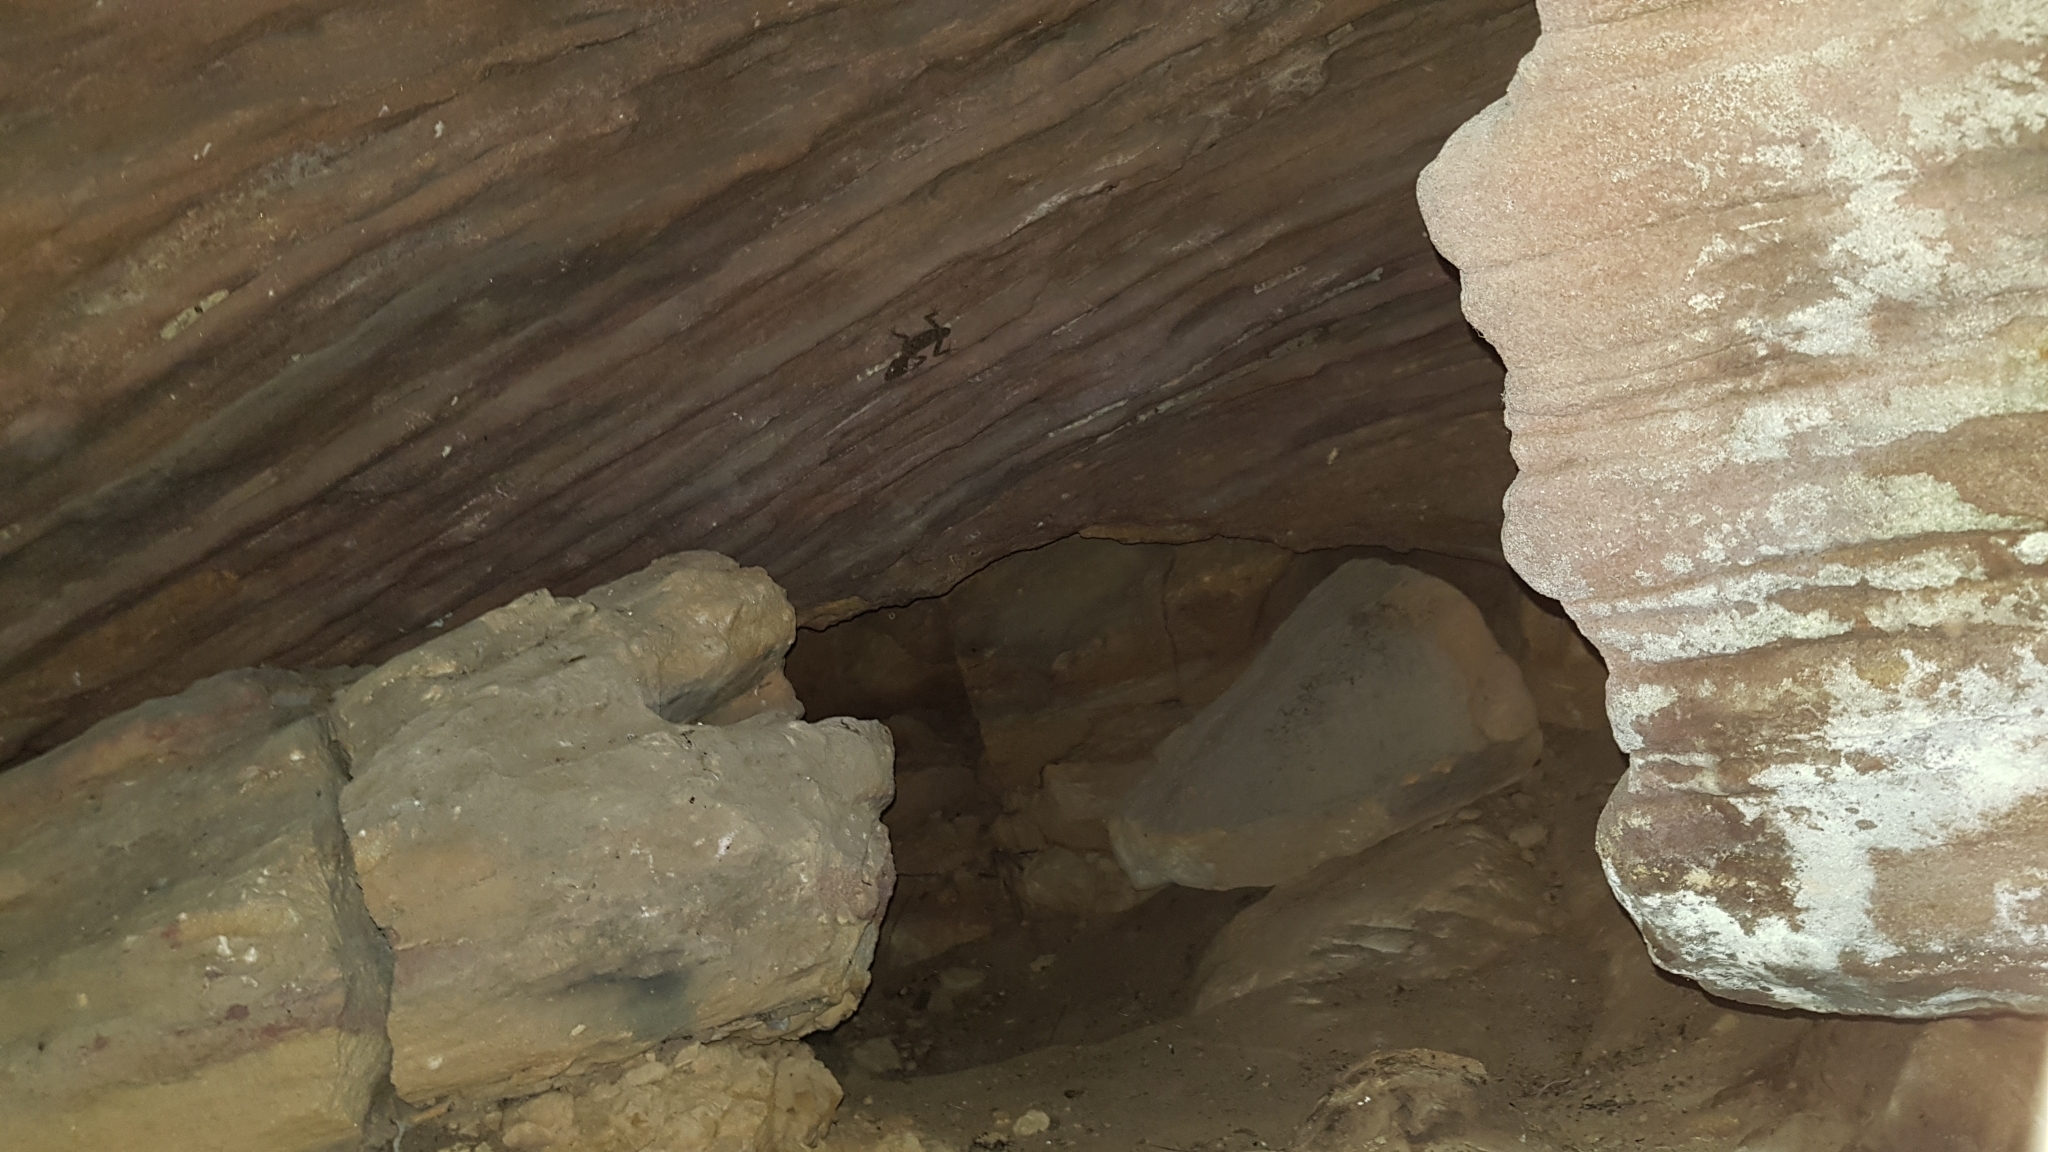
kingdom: Animalia
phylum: Chordata
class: Squamata
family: Carphodactylidae
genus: Phyllurus
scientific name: Phyllurus platurus
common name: Broad-tailed gecko
